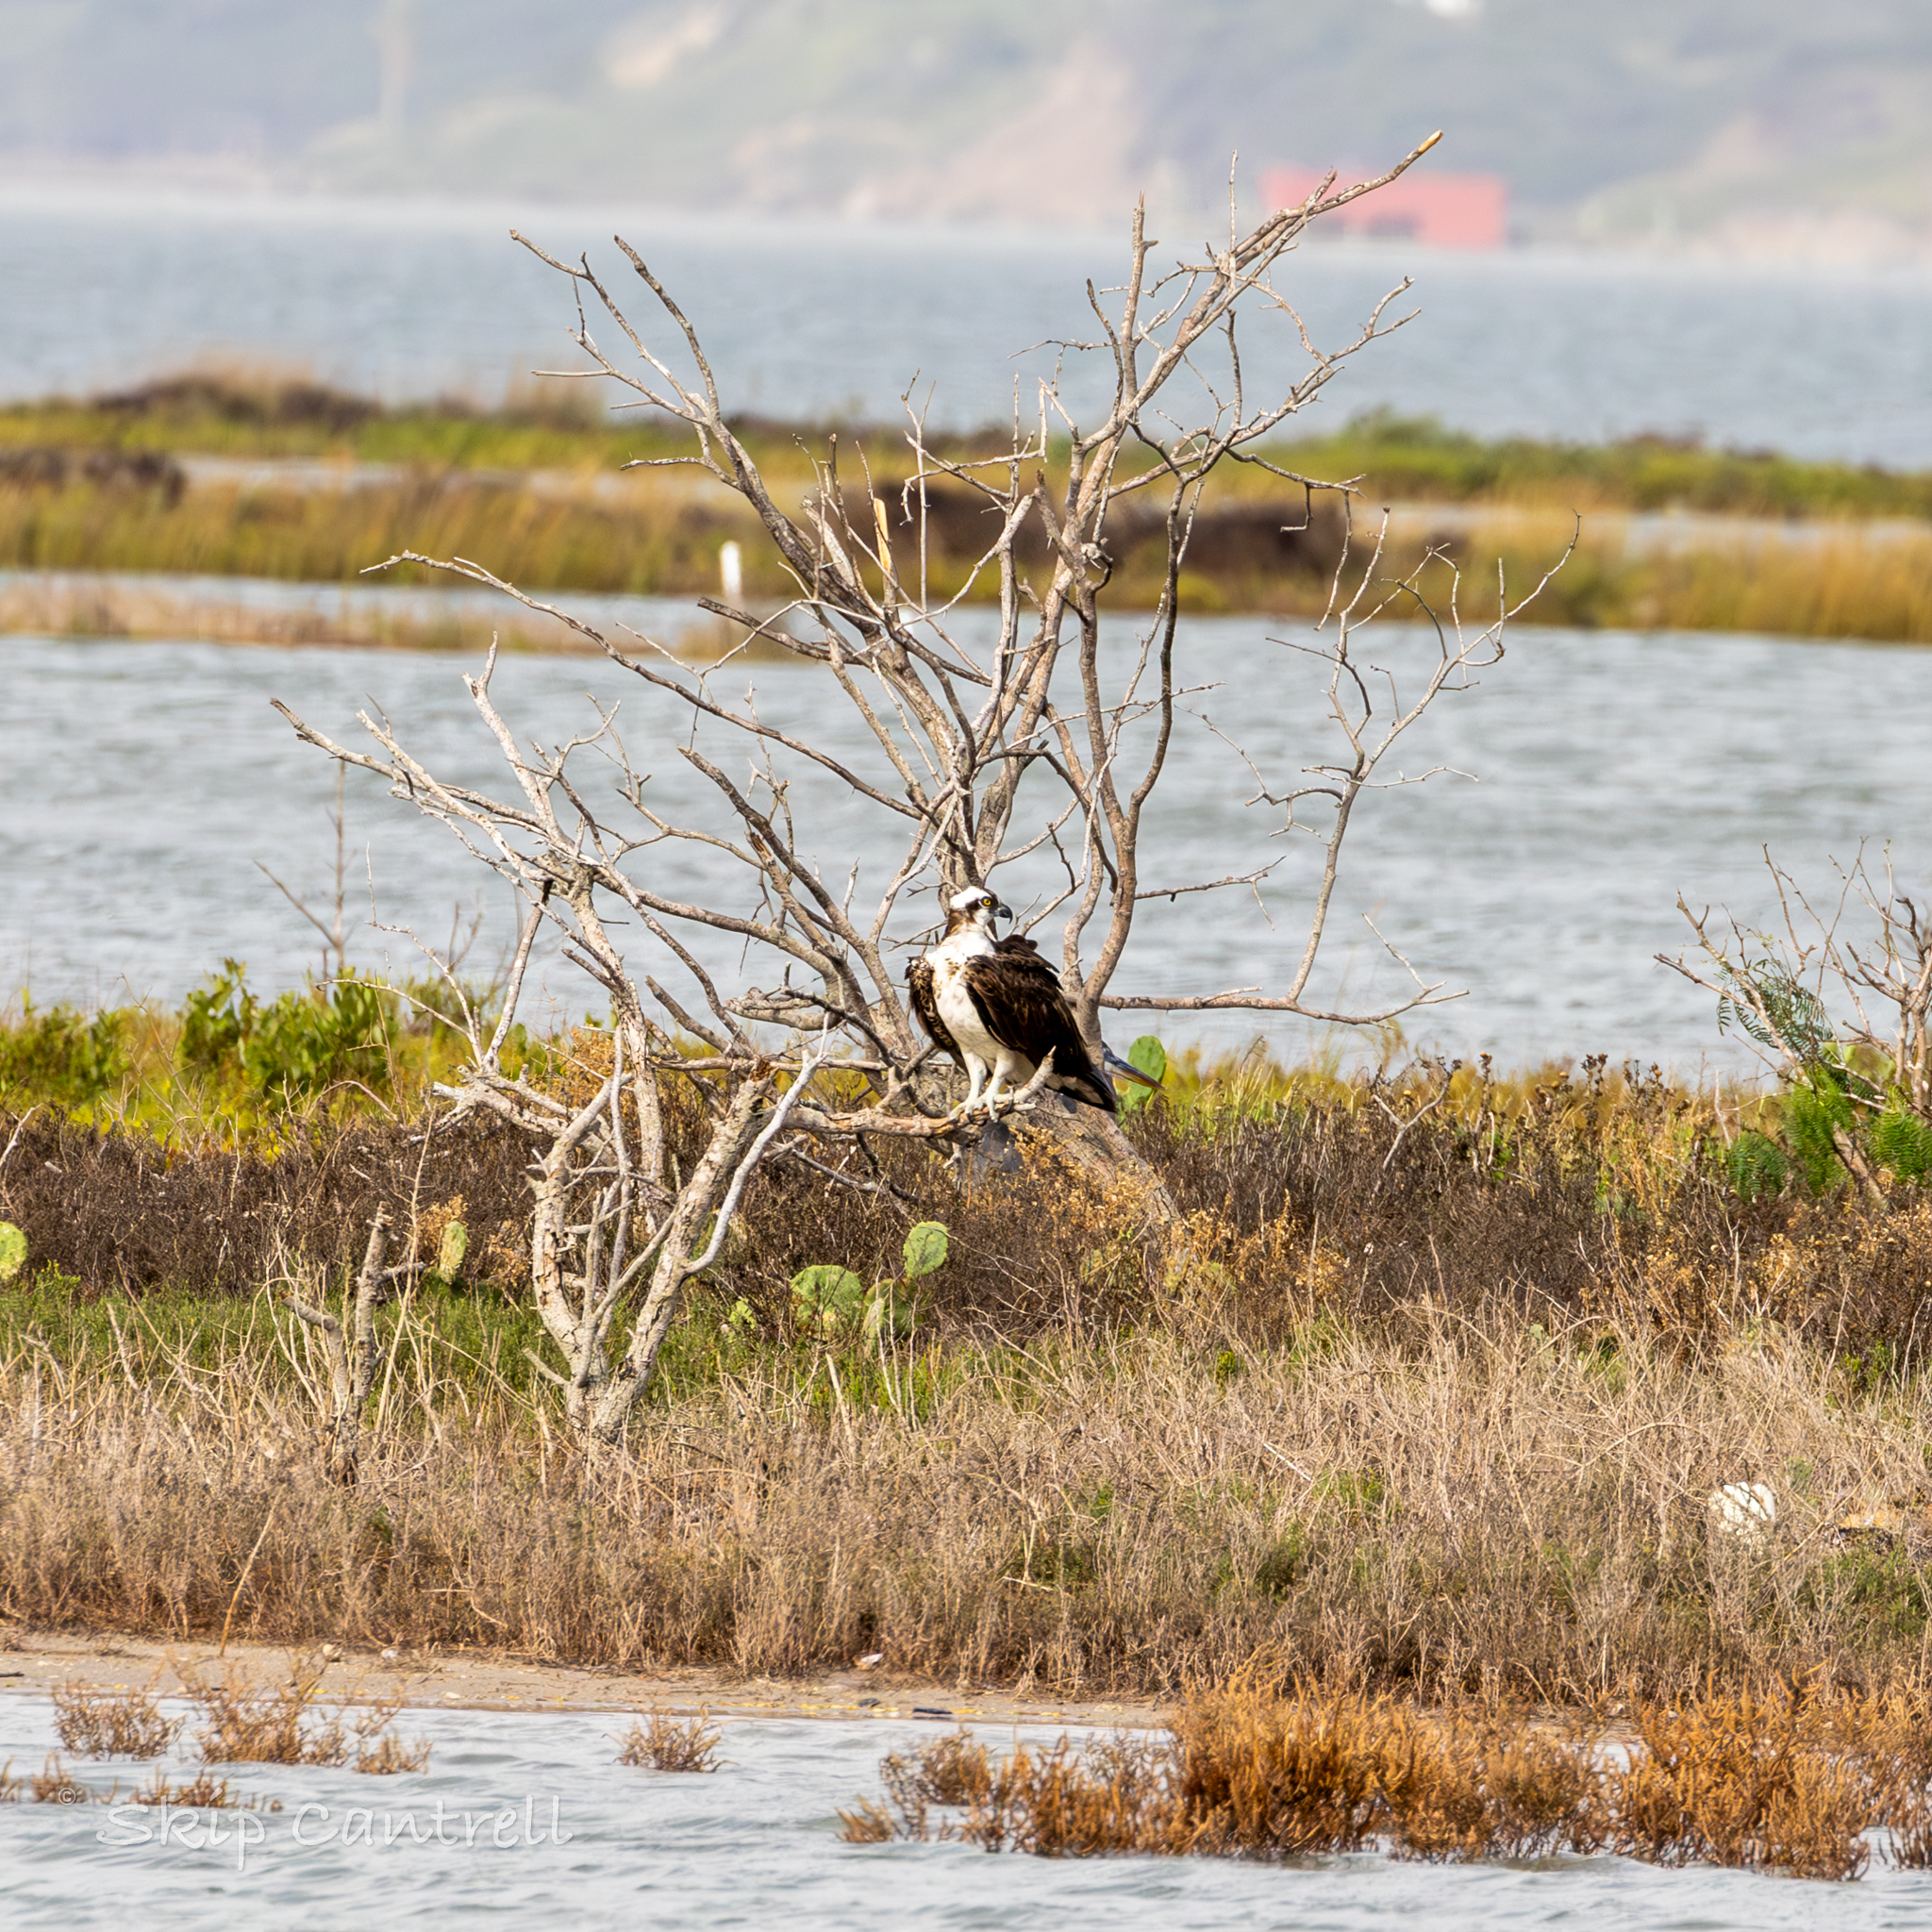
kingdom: Animalia
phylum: Chordata
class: Aves
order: Accipitriformes
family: Pandionidae
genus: Pandion
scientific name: Pandion haliaetus
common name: Osprey
